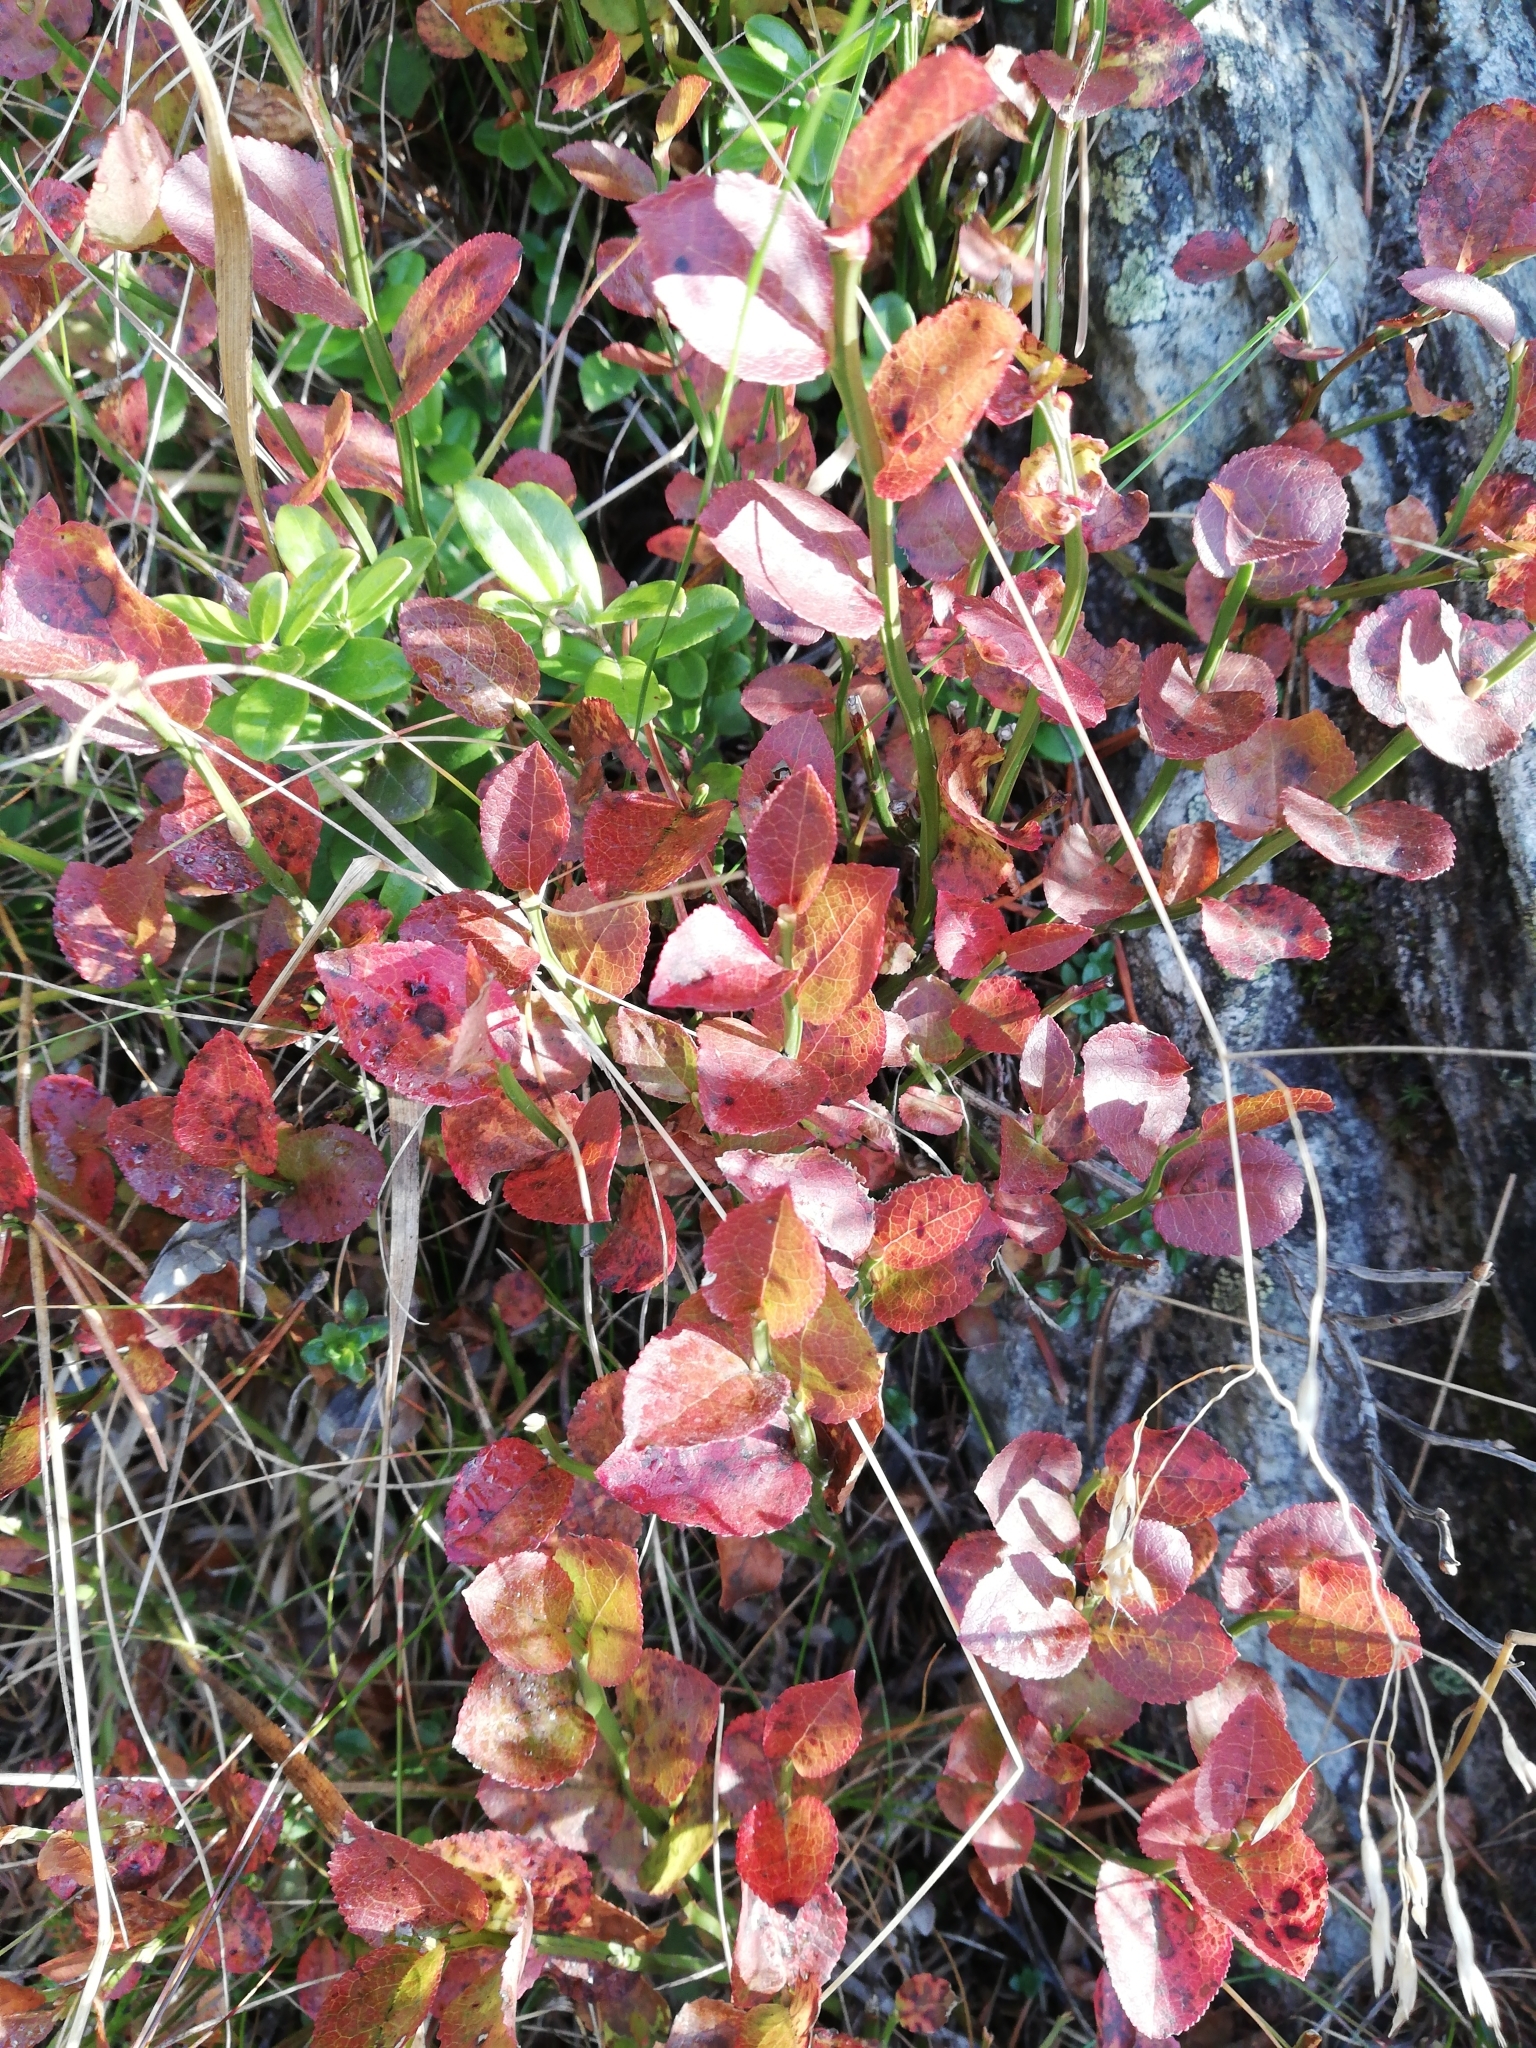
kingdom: Plantae
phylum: Tracheophyta
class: Magnoliopsida
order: Ericales
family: Ericaceae
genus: Vaccinium
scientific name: Vaccinium myrtillus
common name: Bilberry
